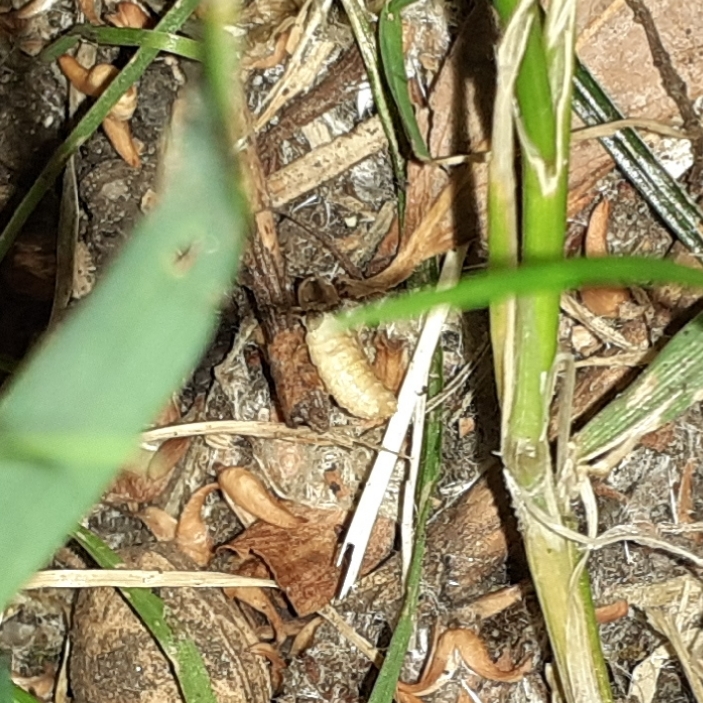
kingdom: Animalia
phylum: Arthropoda
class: Insecta
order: Coleoptera
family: Lampyridae
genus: Lamprohiza
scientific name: Lamprohiza mulsantii
